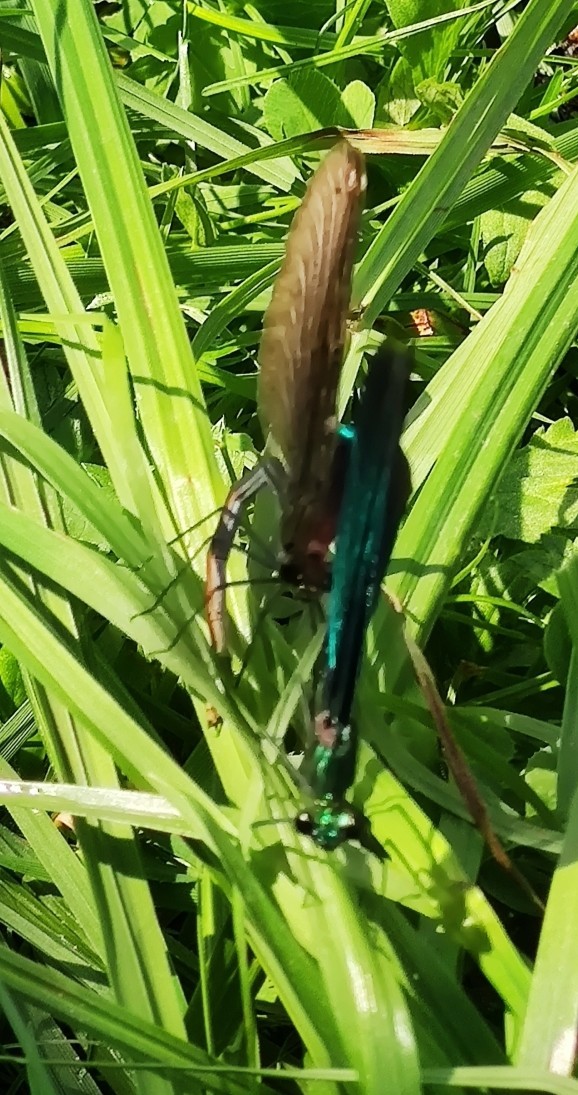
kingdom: Animalia
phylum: Arthropoda
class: Insecta
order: Odonata
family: Calopterygidae
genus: Calopteryx
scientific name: Calopteryx virgo
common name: Beautiful demoiselle
